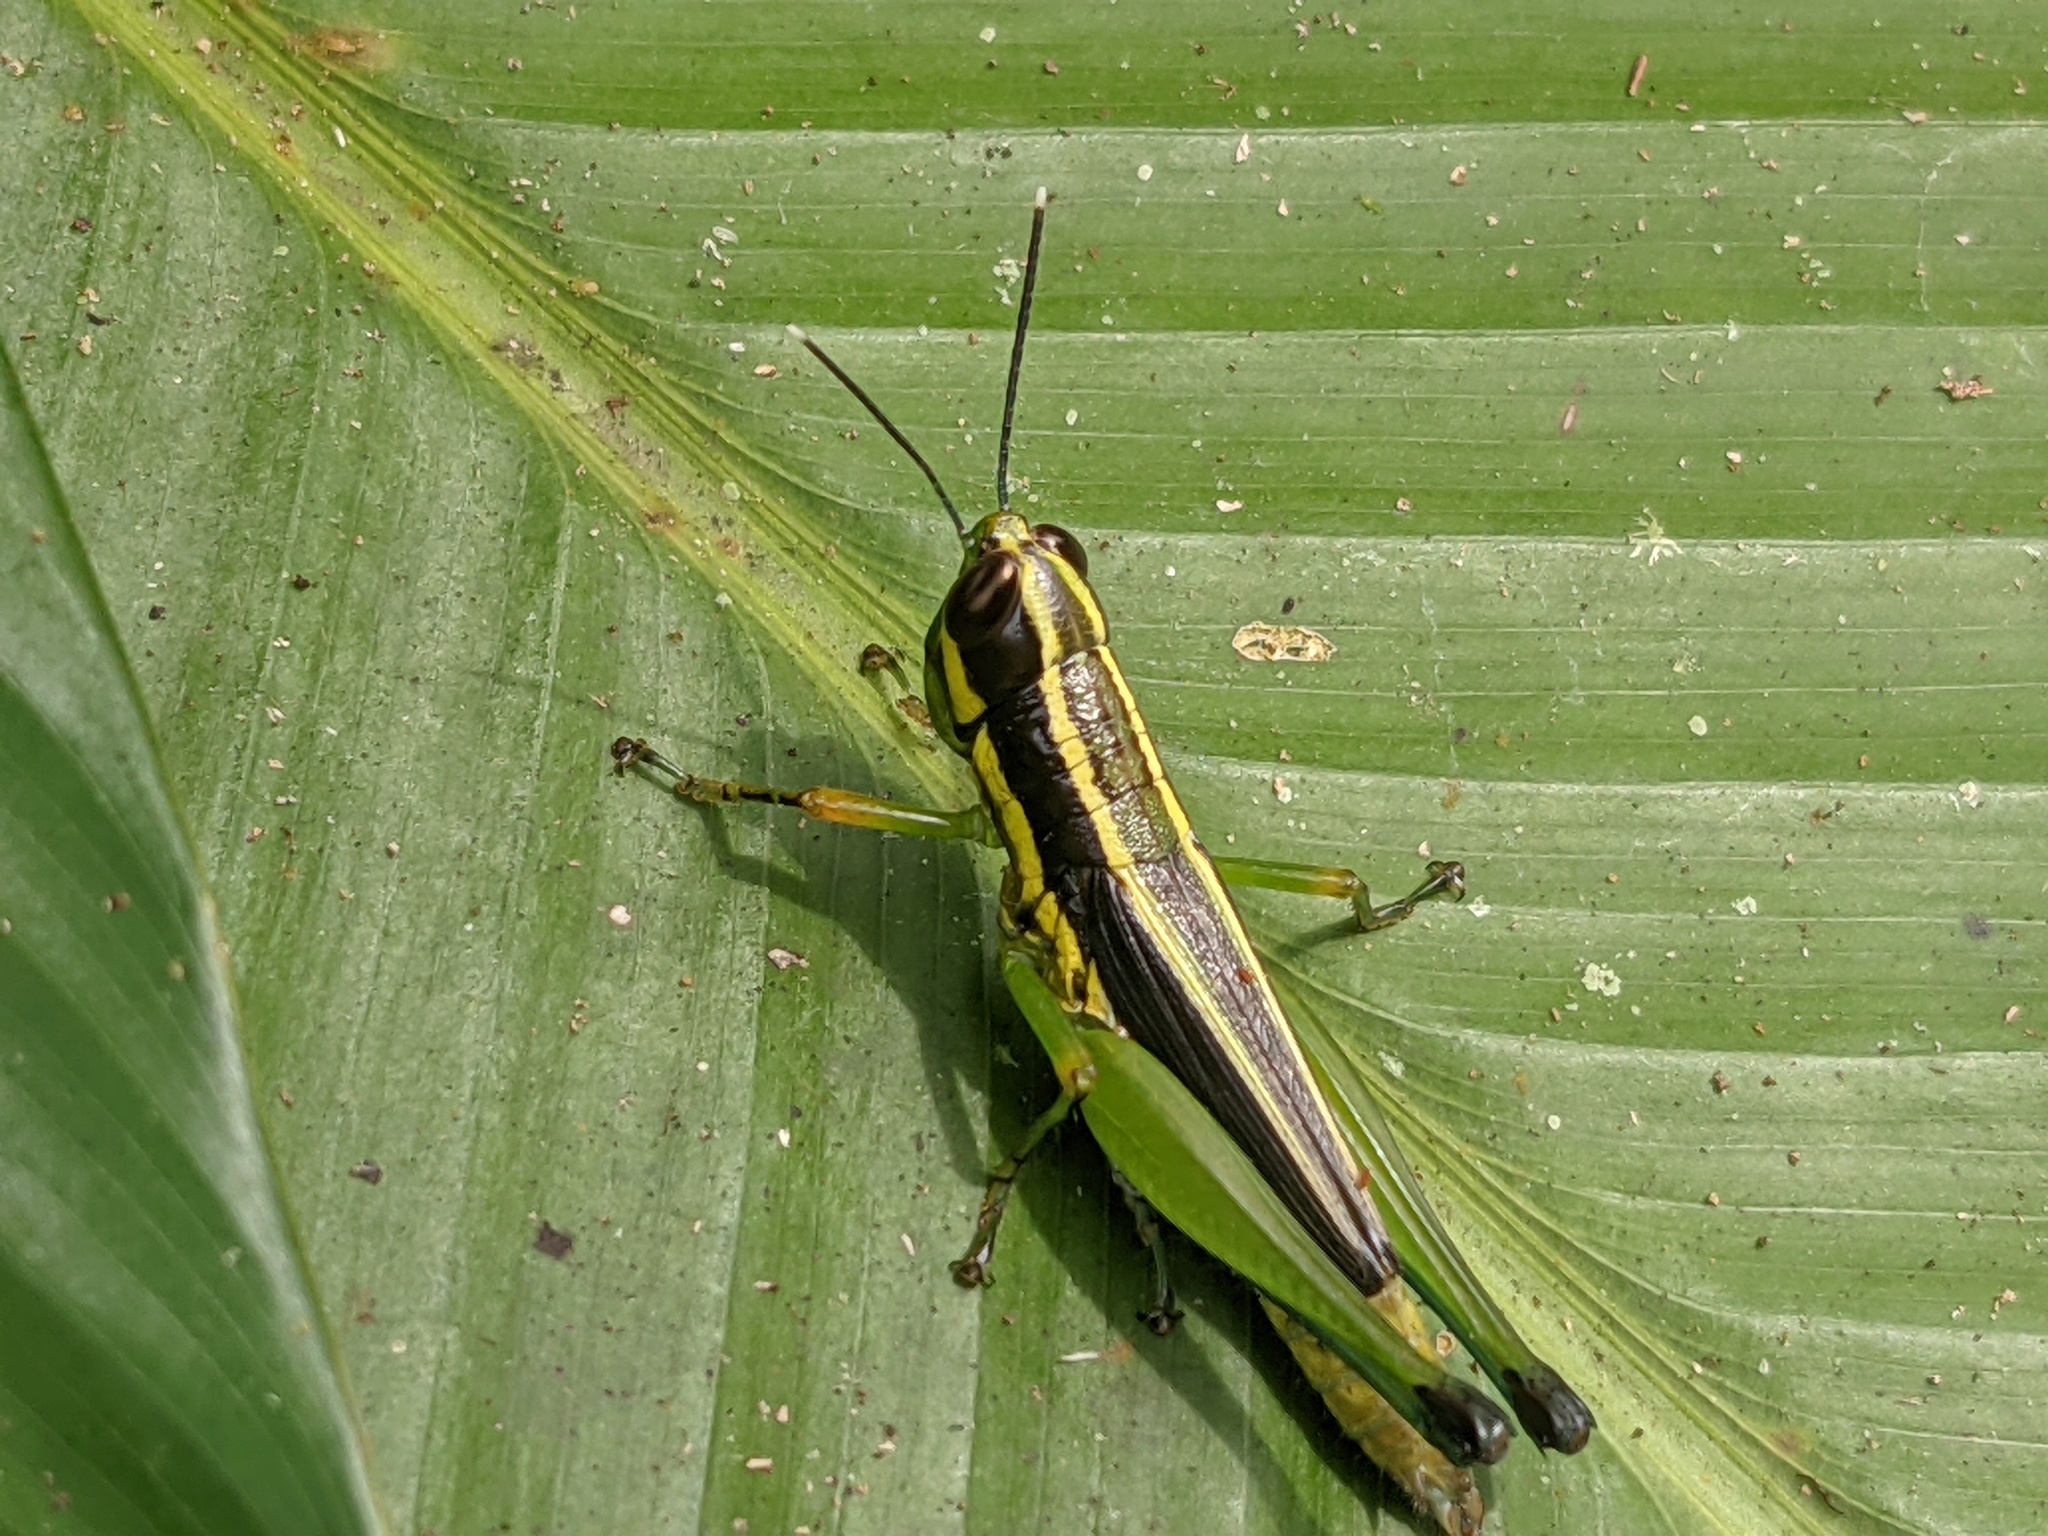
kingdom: Animalia
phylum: Arthropoda
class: Insecta
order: Orthoptera
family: Acrididae
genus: Mastusia
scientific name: Mastusia quadricarinata
